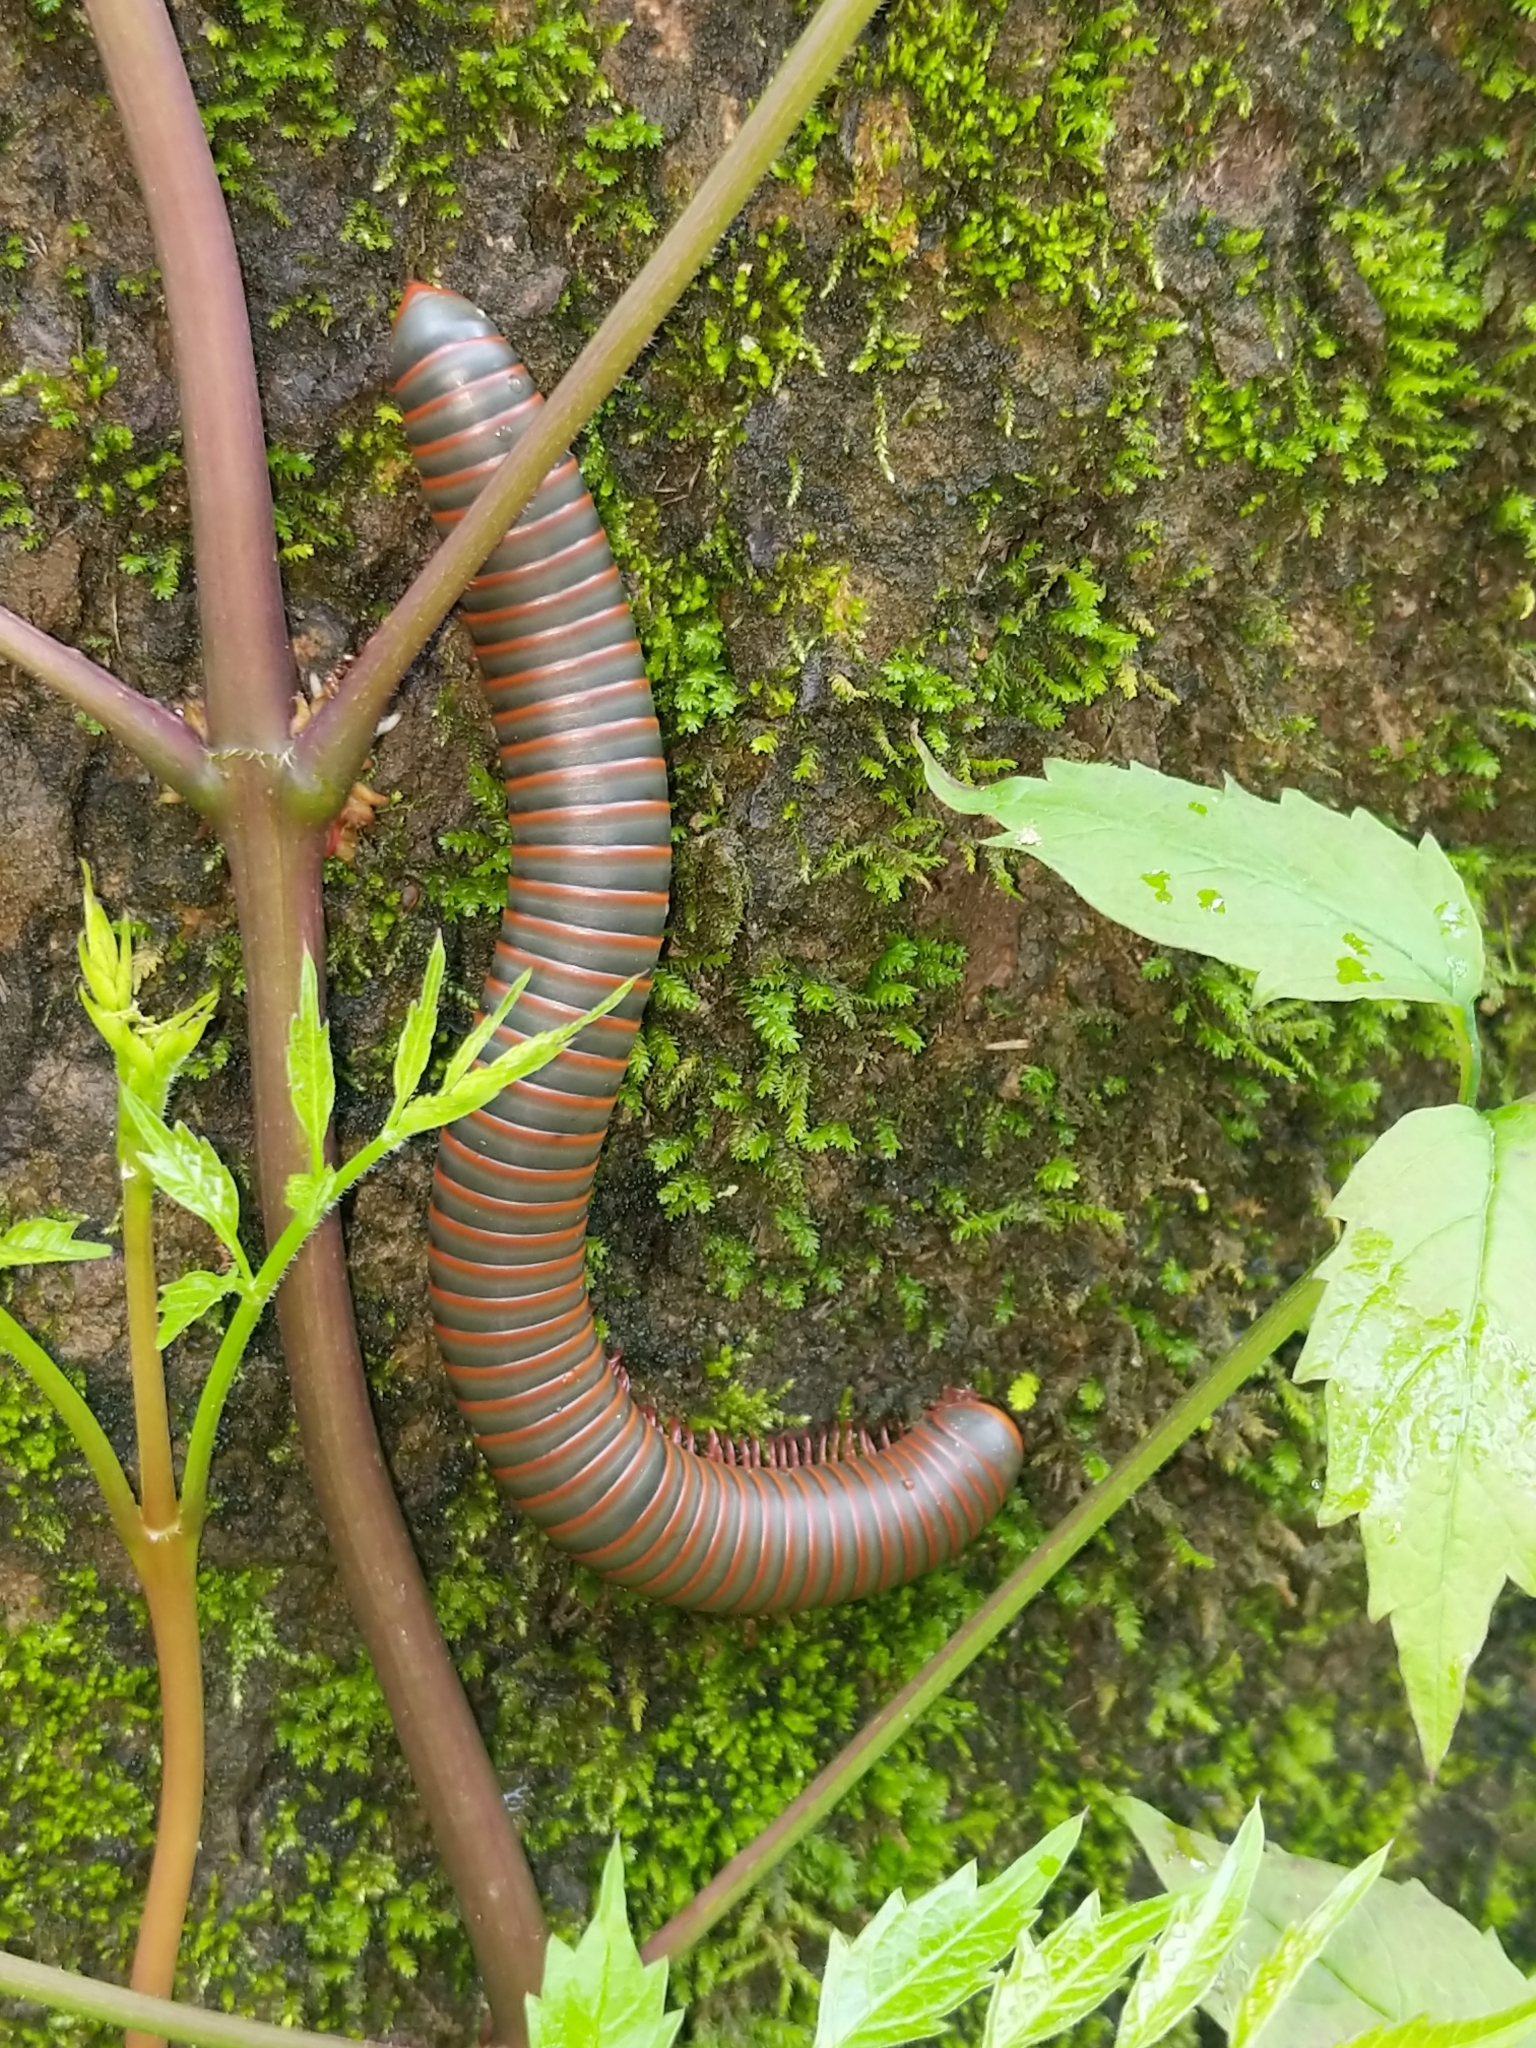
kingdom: Animalia
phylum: Arthropoda
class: Diplopoda
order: Spirobolida
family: Spirobolidae
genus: Narceus
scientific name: Narceus
